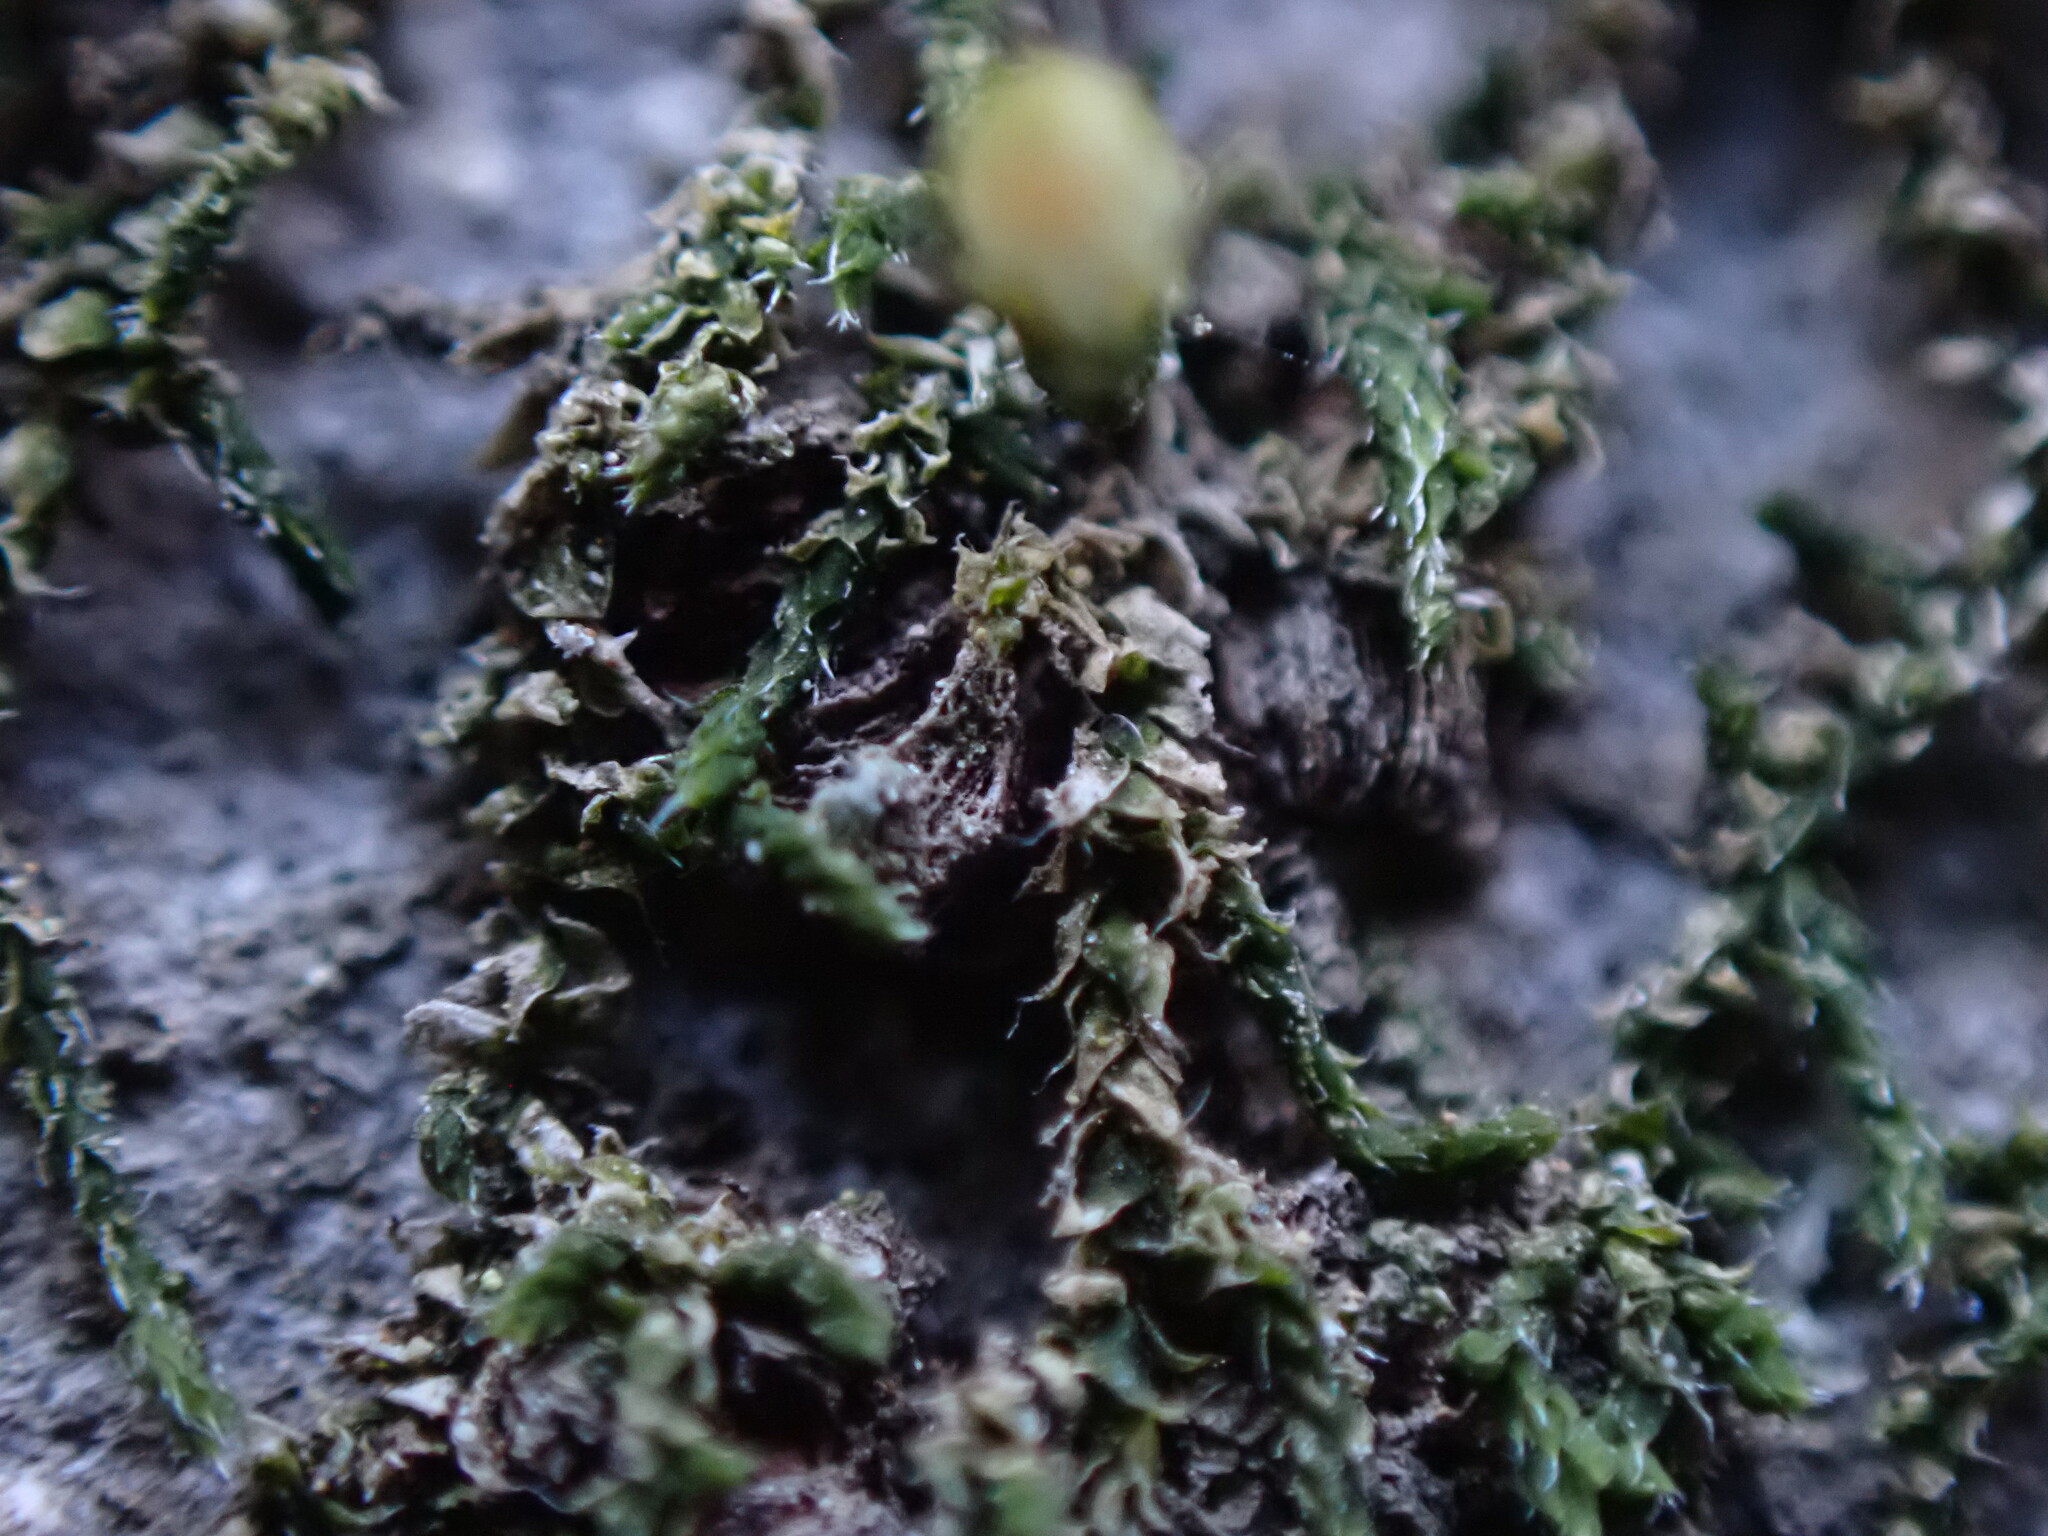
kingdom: Plantae
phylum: Bryophyta
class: Bryopsida
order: Dicranales
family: Erpodiaceae
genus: Venturiella
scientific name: Venturiella sinensis
